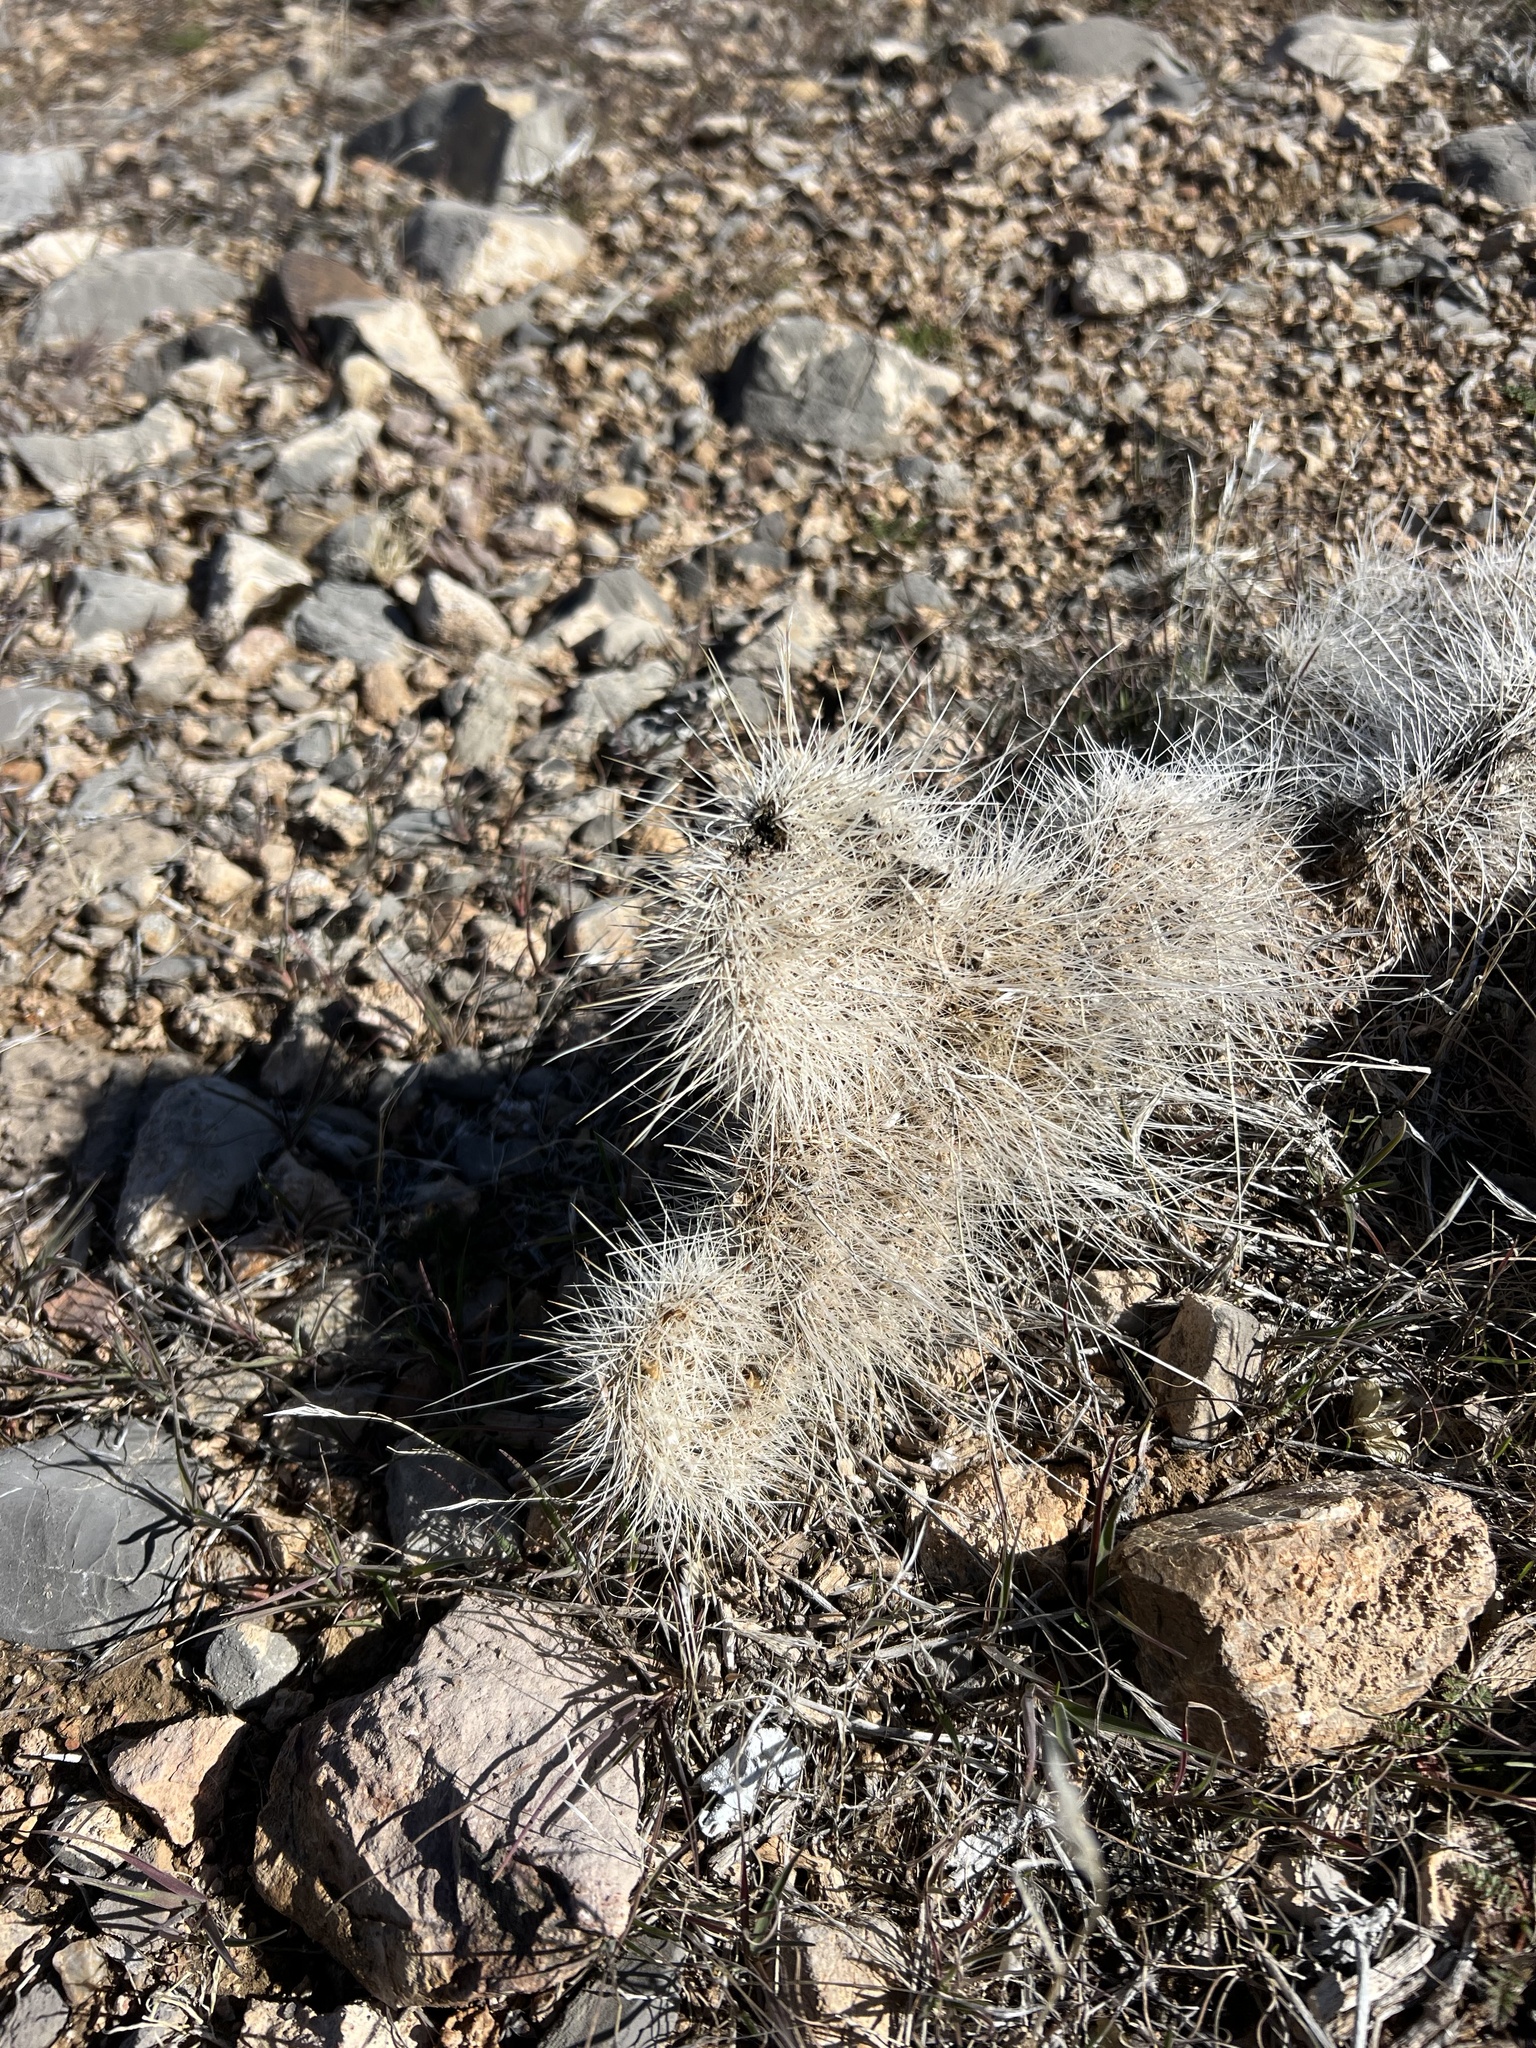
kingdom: Plantae
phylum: Tracheophyta
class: Magnoliopsida
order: Caryophyllales
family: Cactaceae
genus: Opuntia
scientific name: Opuntia polyacantha
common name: Plains prickly-pear
